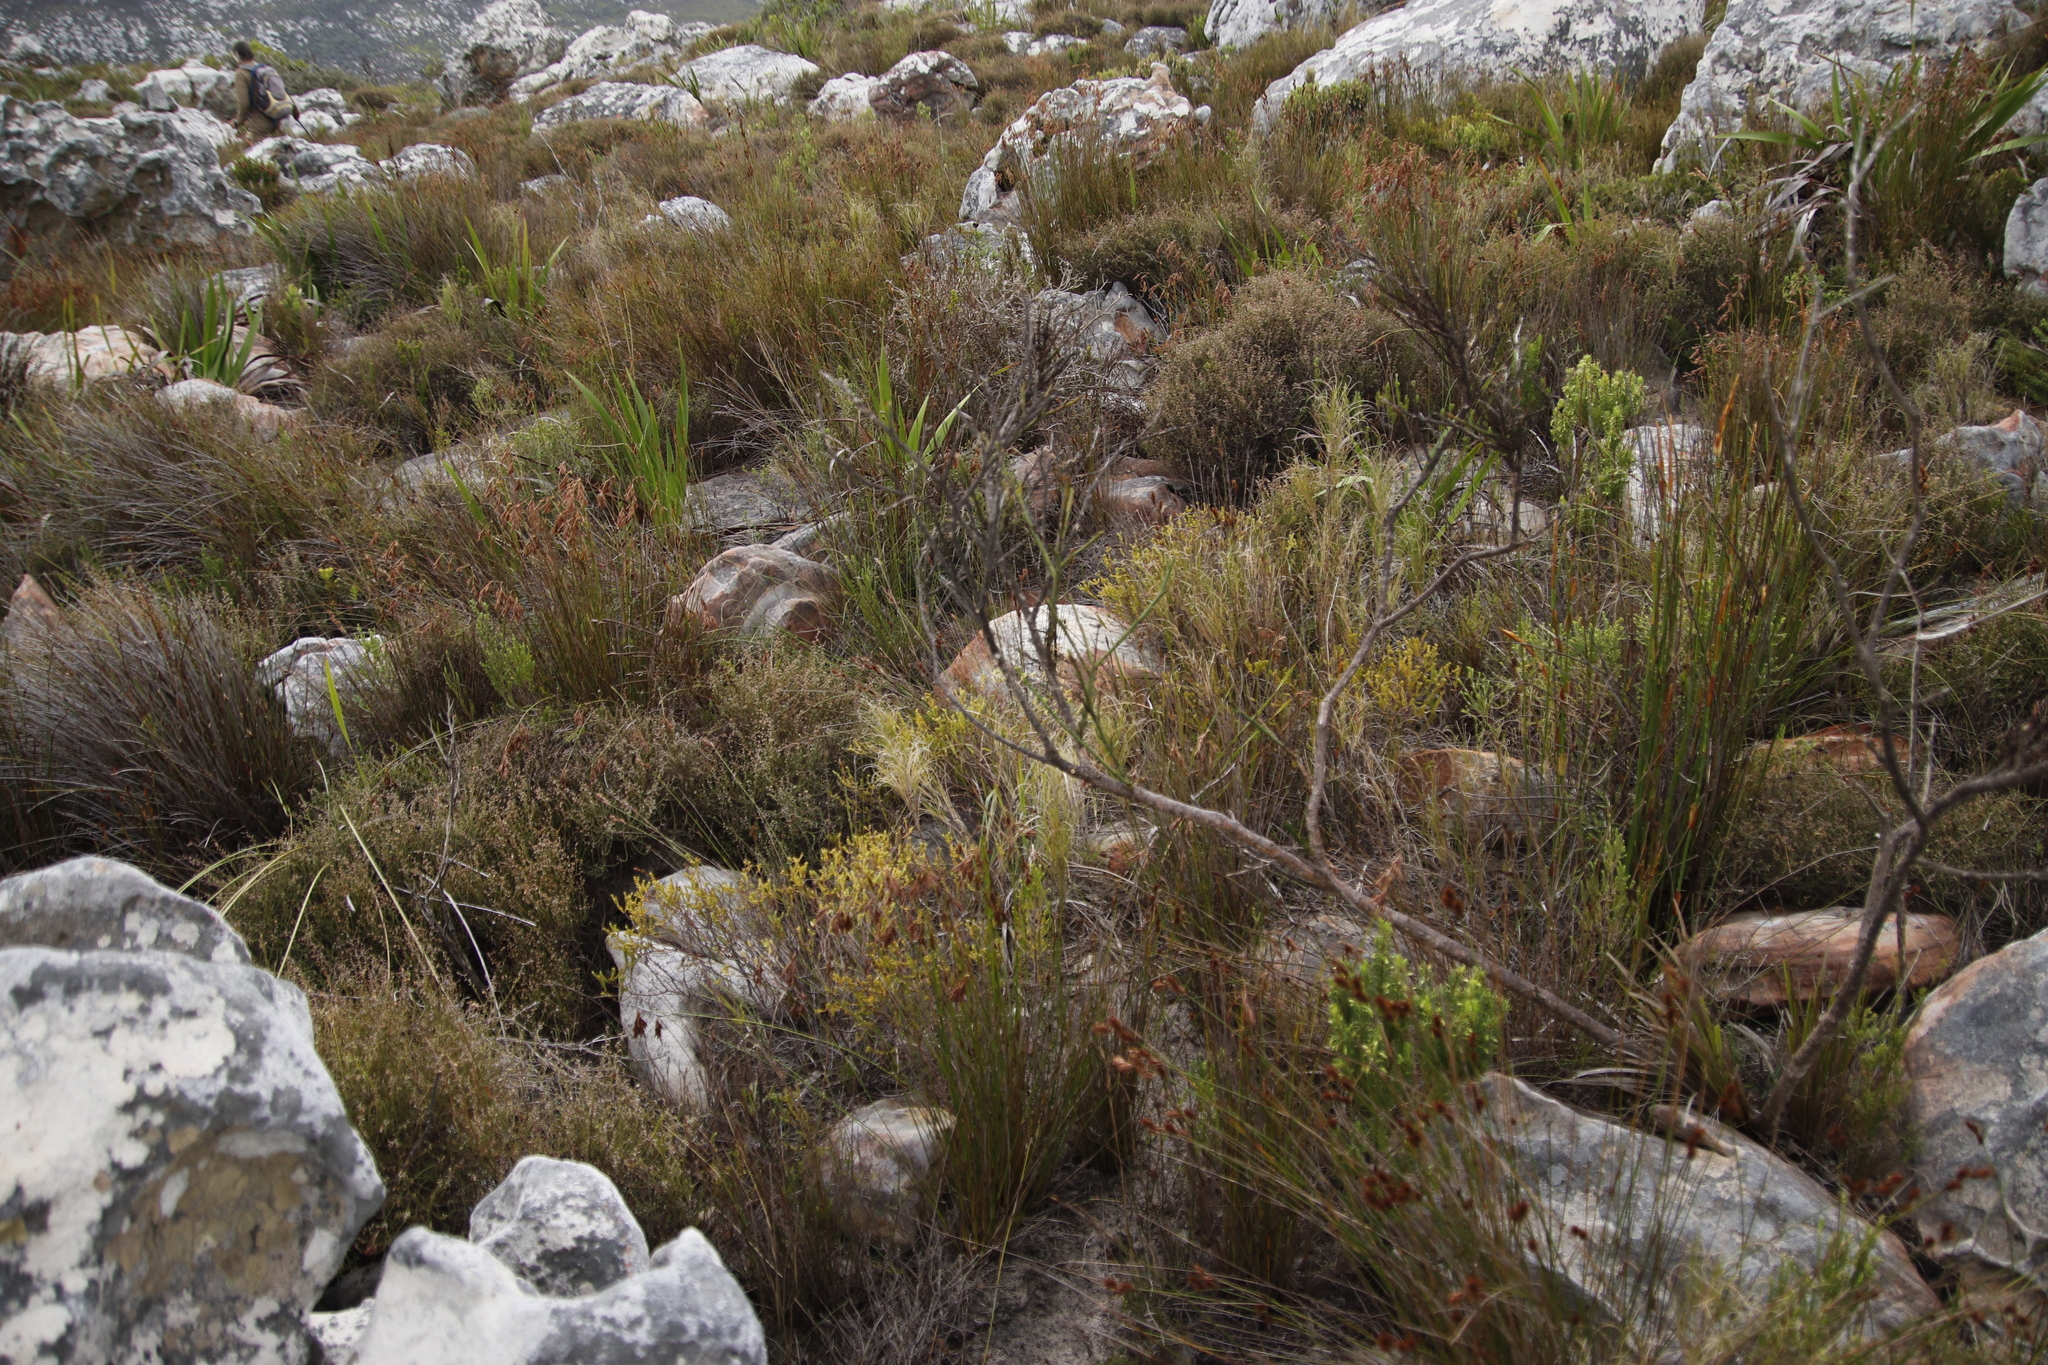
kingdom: Plantae
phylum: Tracheophyta
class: Magnoliopsida
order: Santalales
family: Thesiaceae
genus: Thesium
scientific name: Thesium strictum
